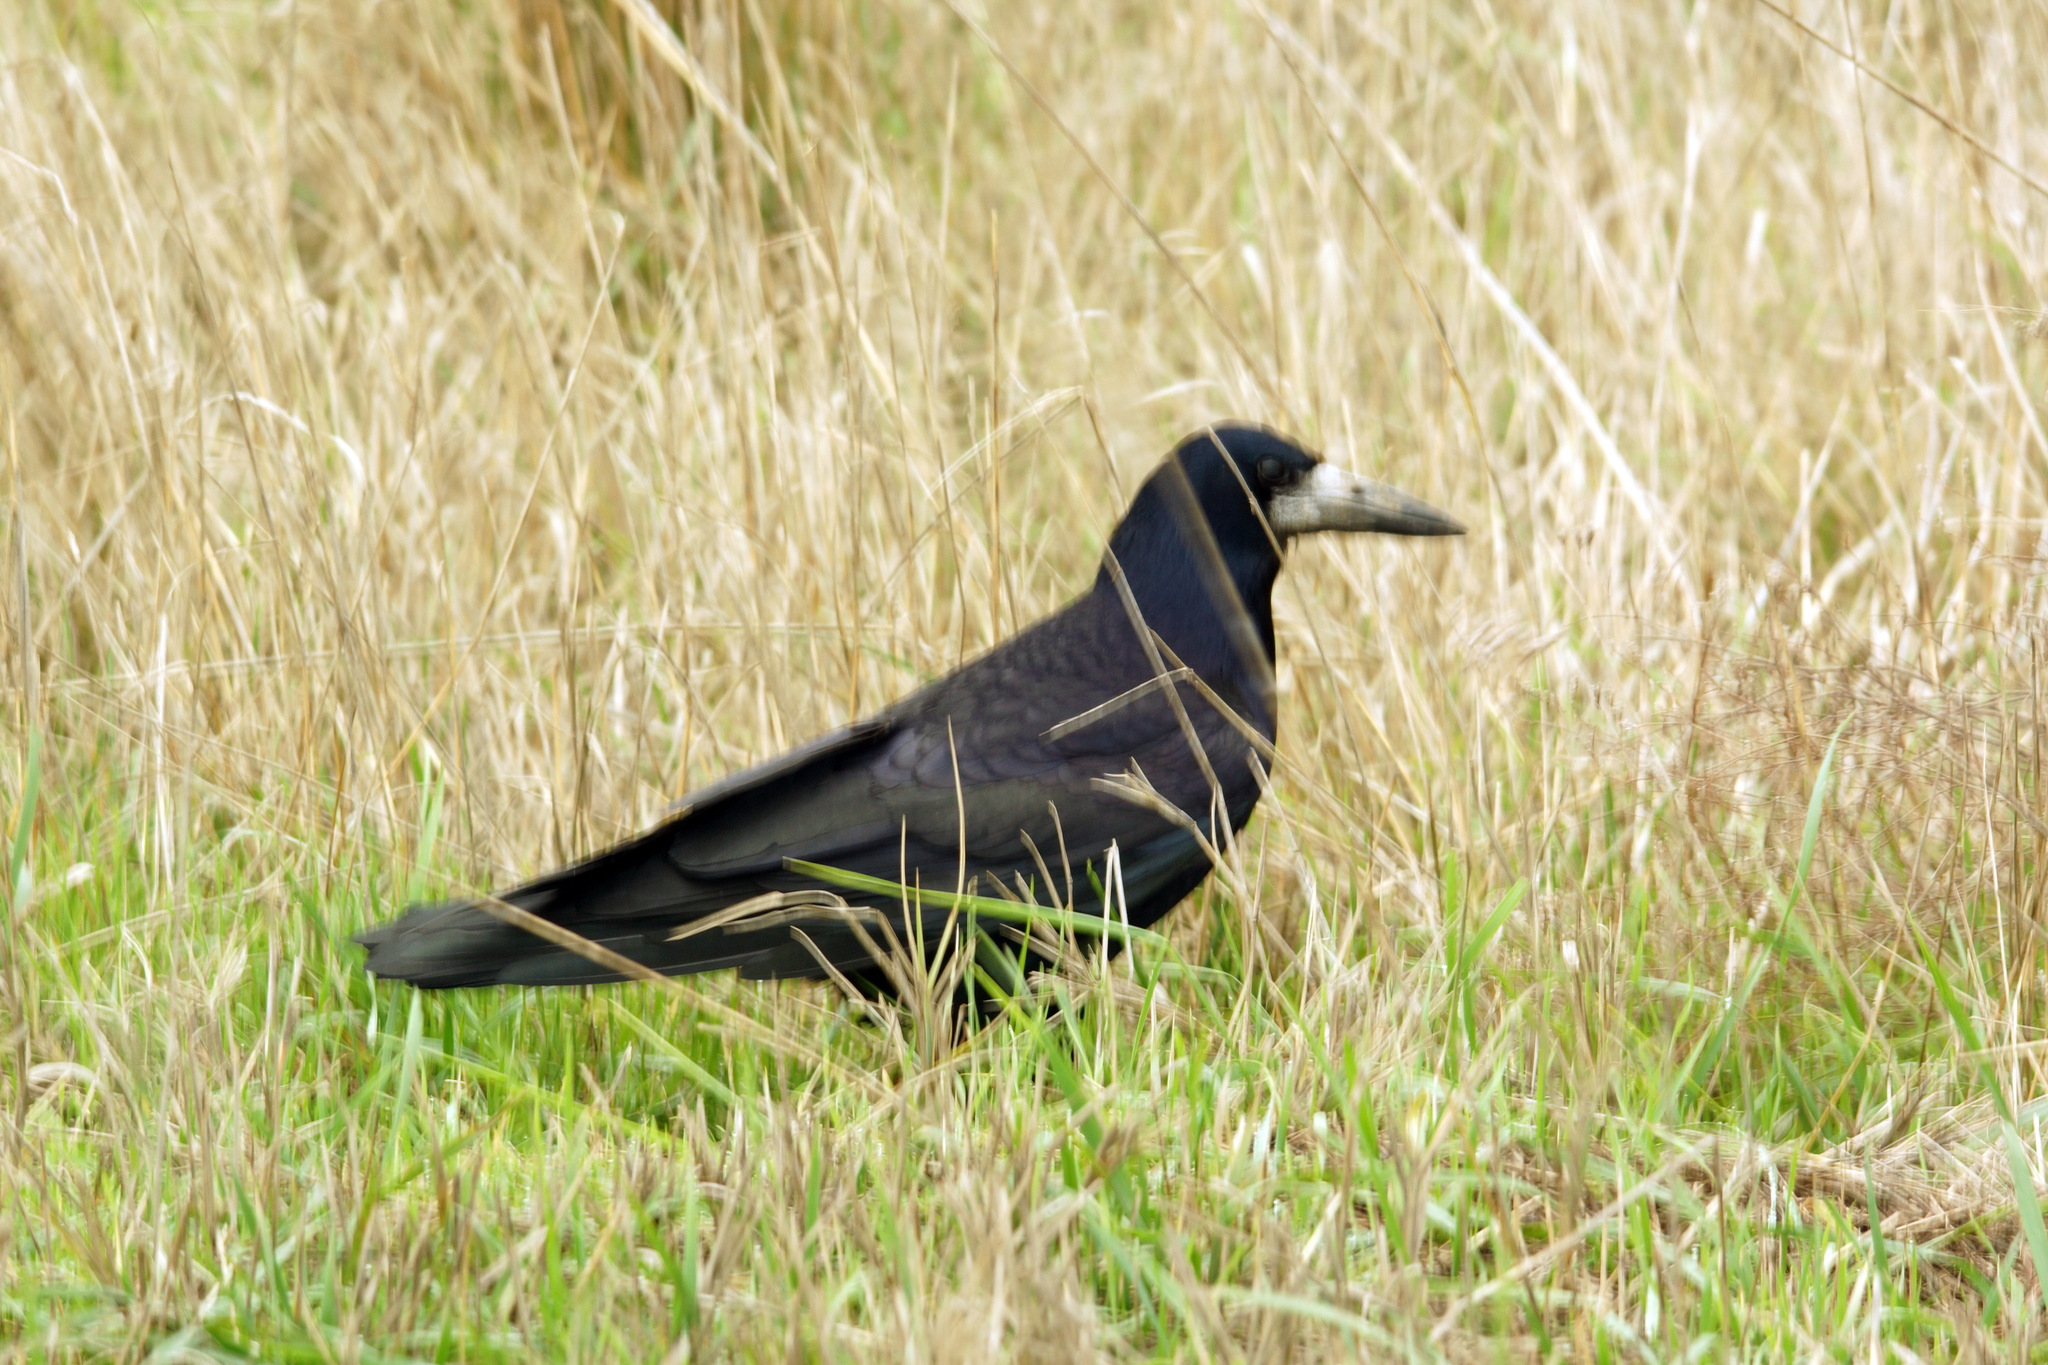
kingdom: Animalia
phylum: Chordata
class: Aves
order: Passeriformes
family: Corvidae
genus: Corvus
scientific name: Corvus frugilegus
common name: Rook
